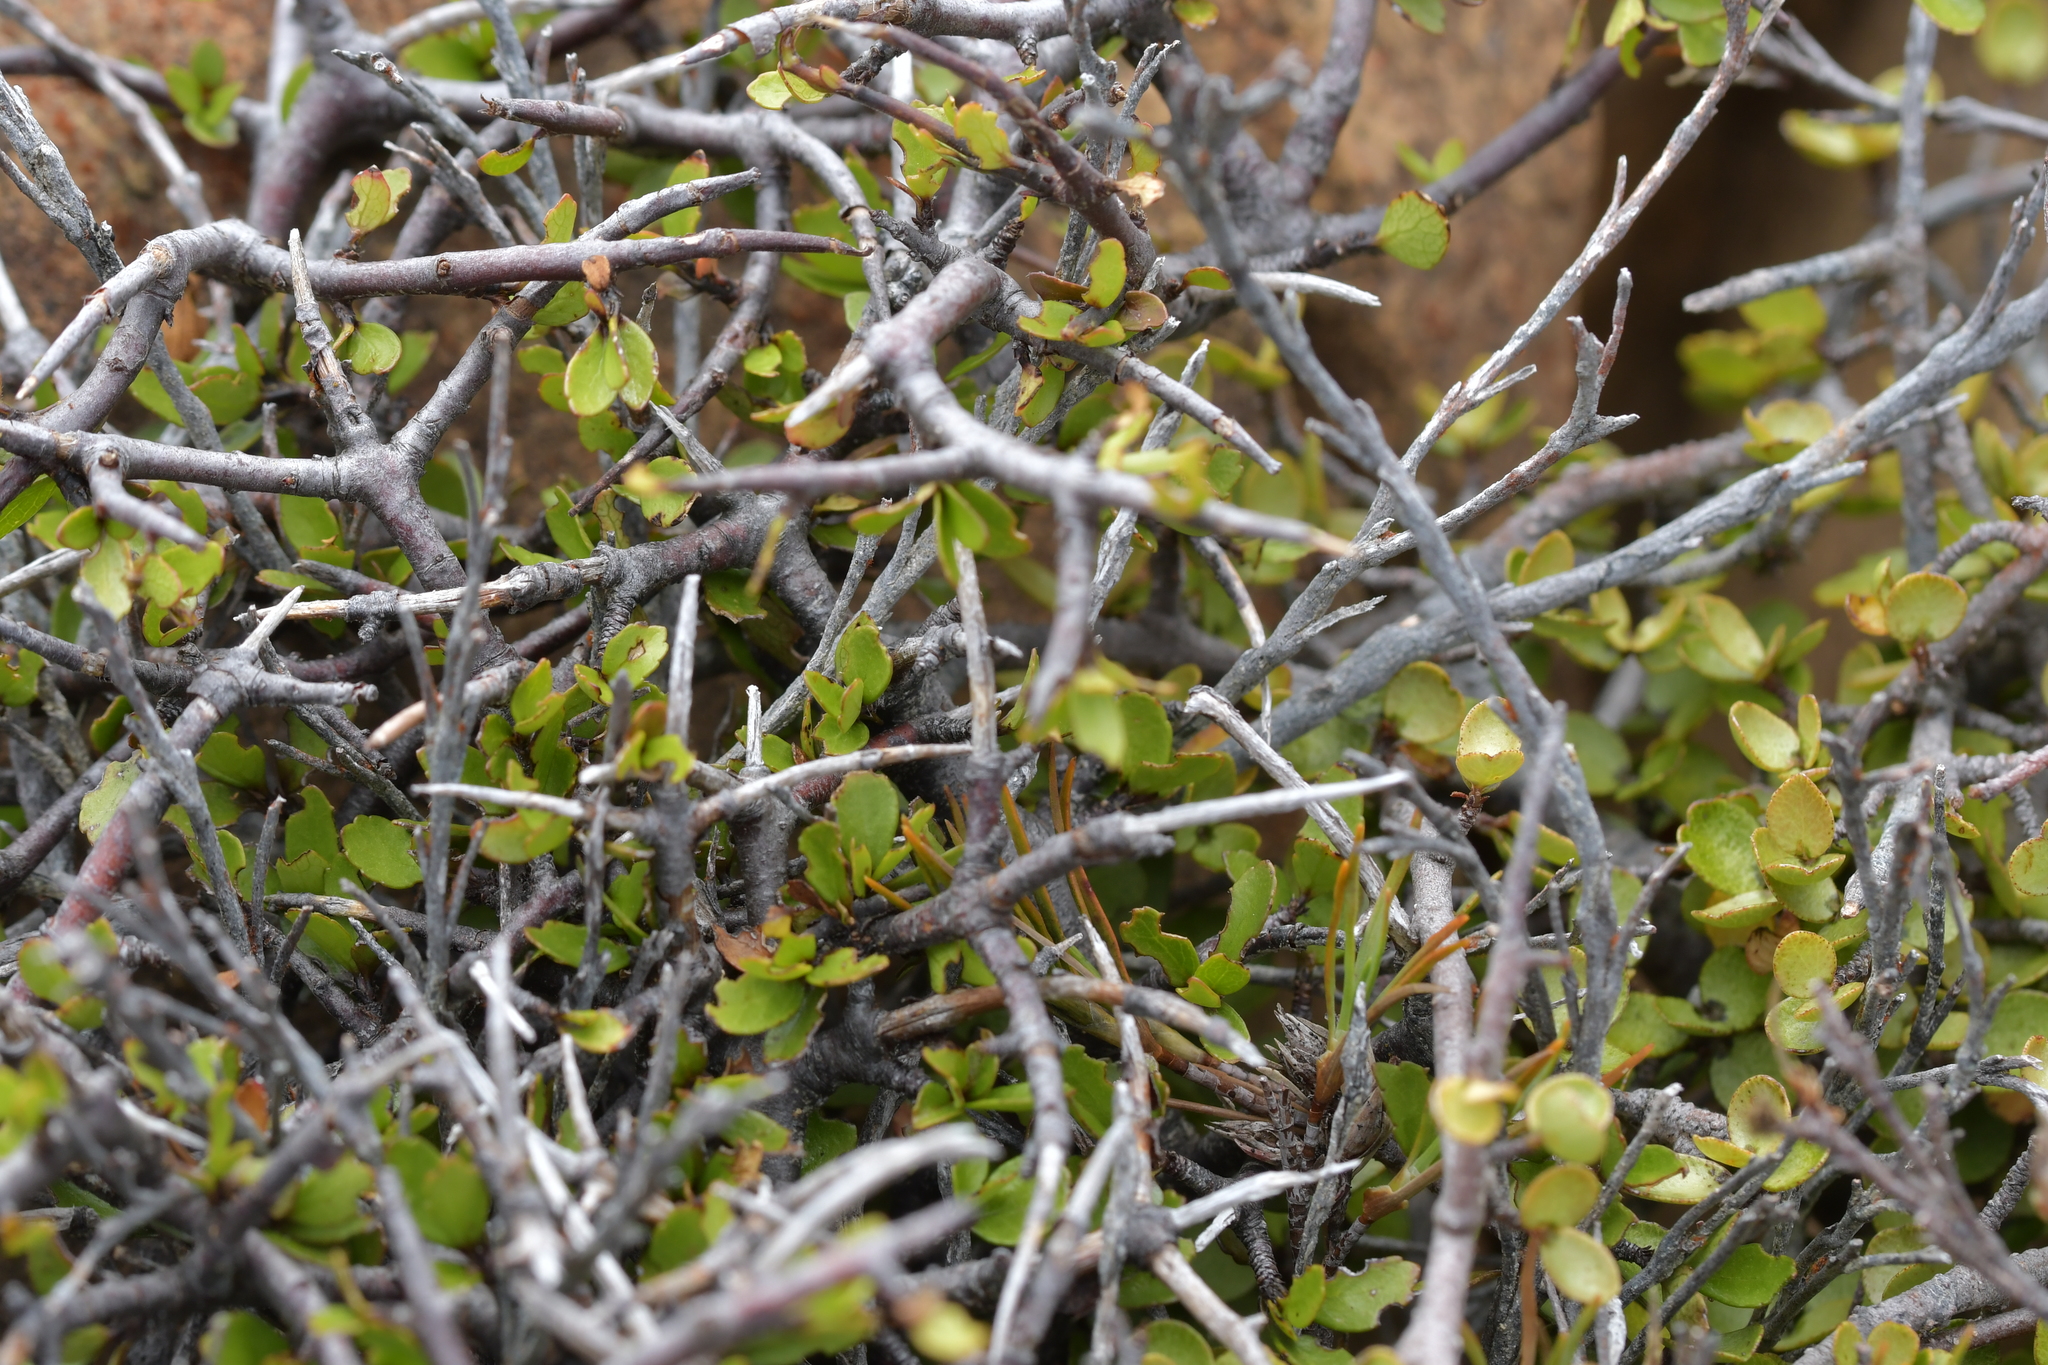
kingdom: Plantae
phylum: Tracheophyta
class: Magnoliopsida
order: Ericales
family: Primulaceae
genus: Myrsine
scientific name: Myrsine divaricata
